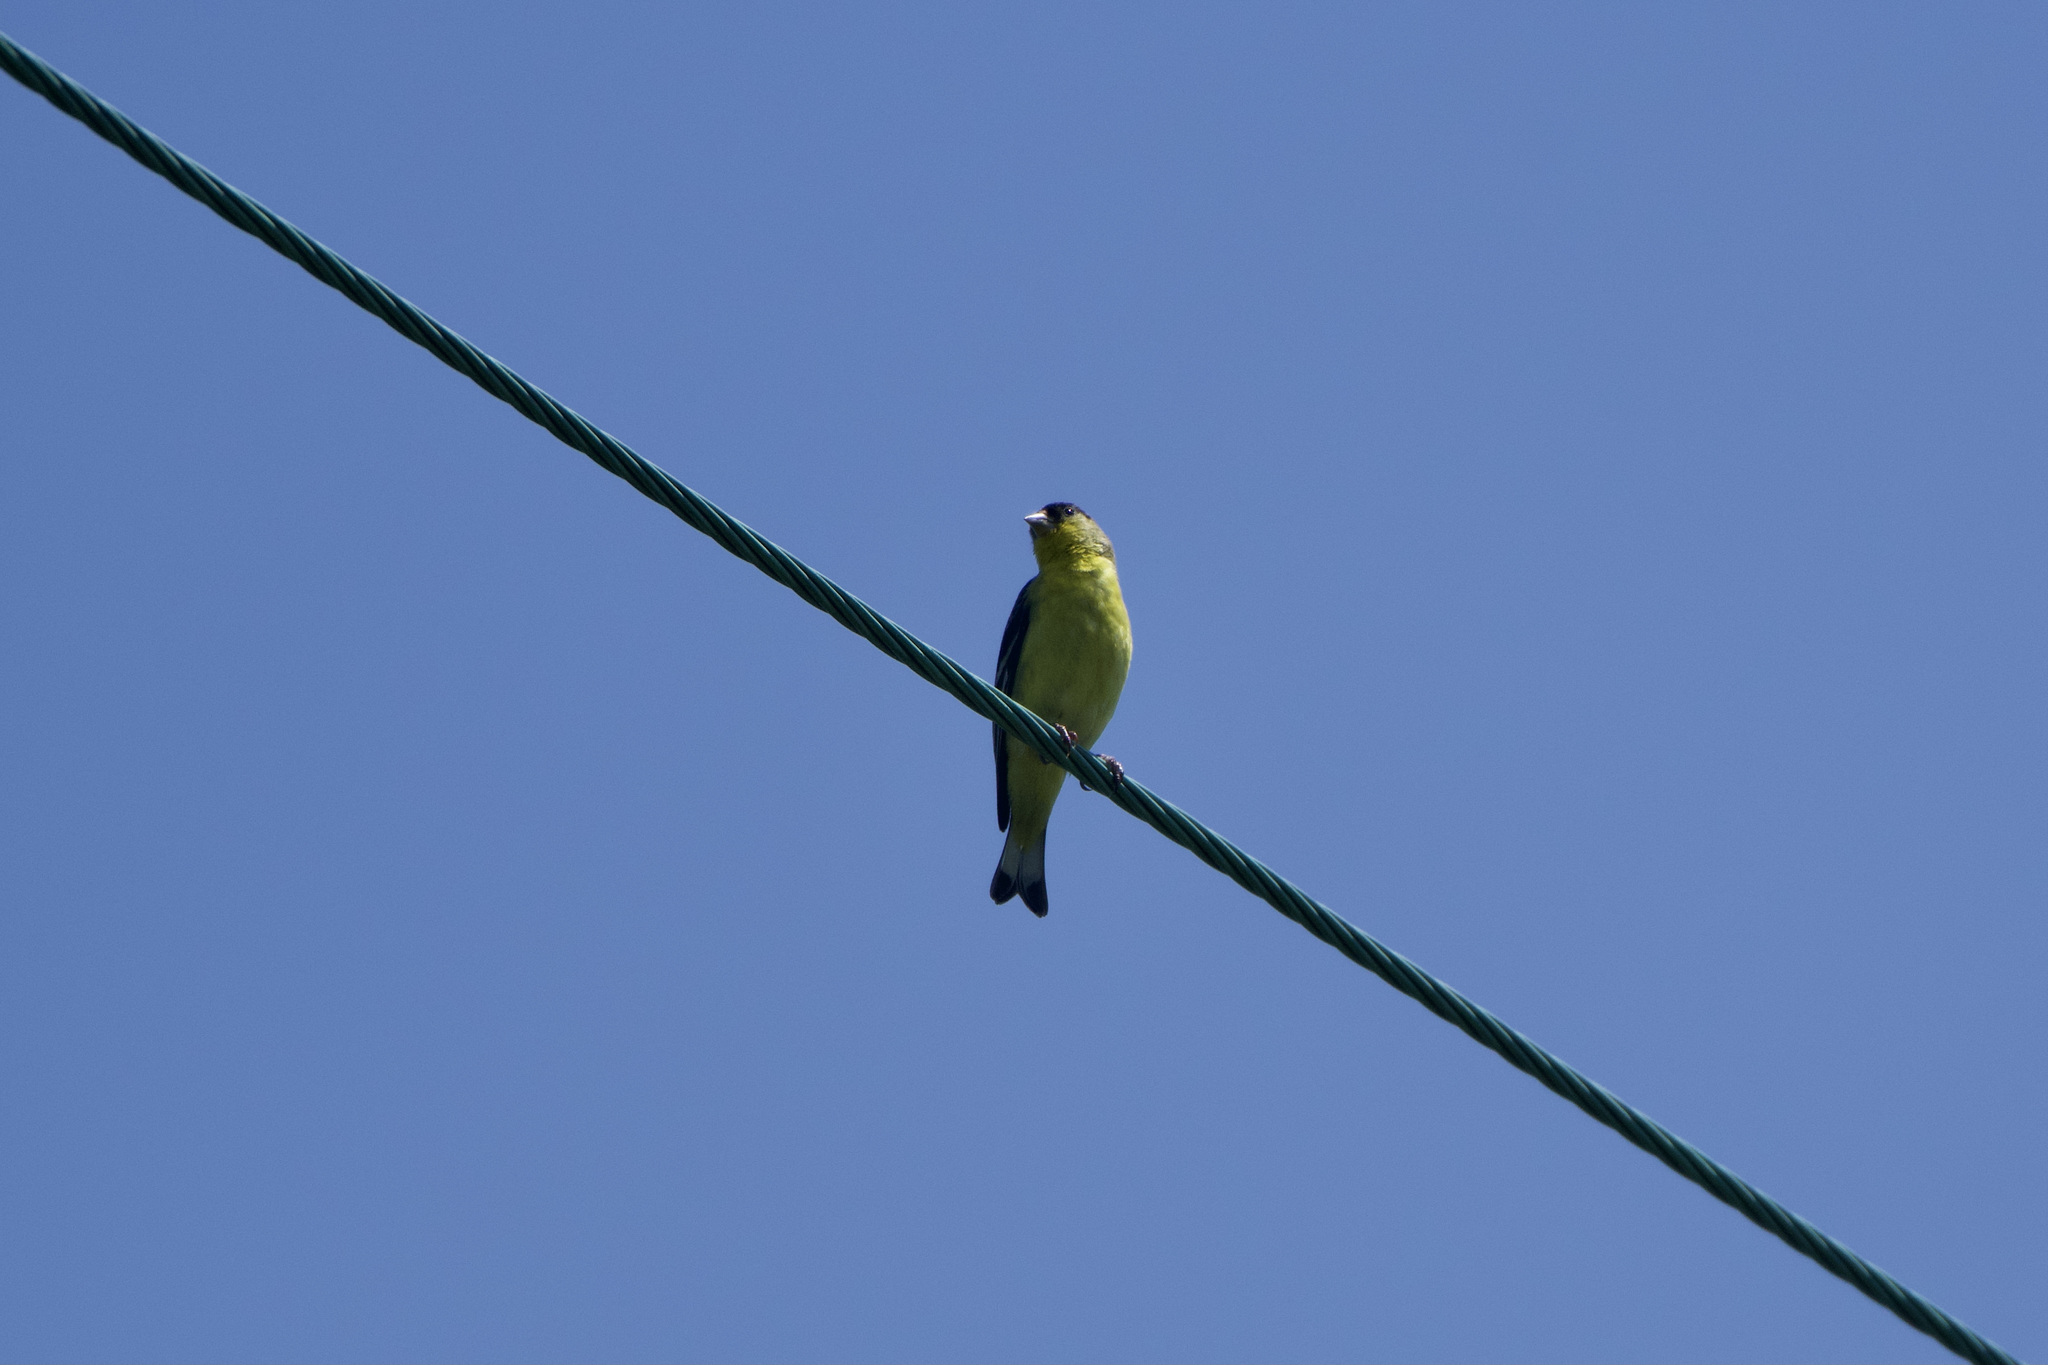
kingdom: Animalia
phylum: Chordata
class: Aves
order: Passeriformes
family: Fringillidae
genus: Spinus
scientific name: Spinus psaltria
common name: Lesser goldfinch
